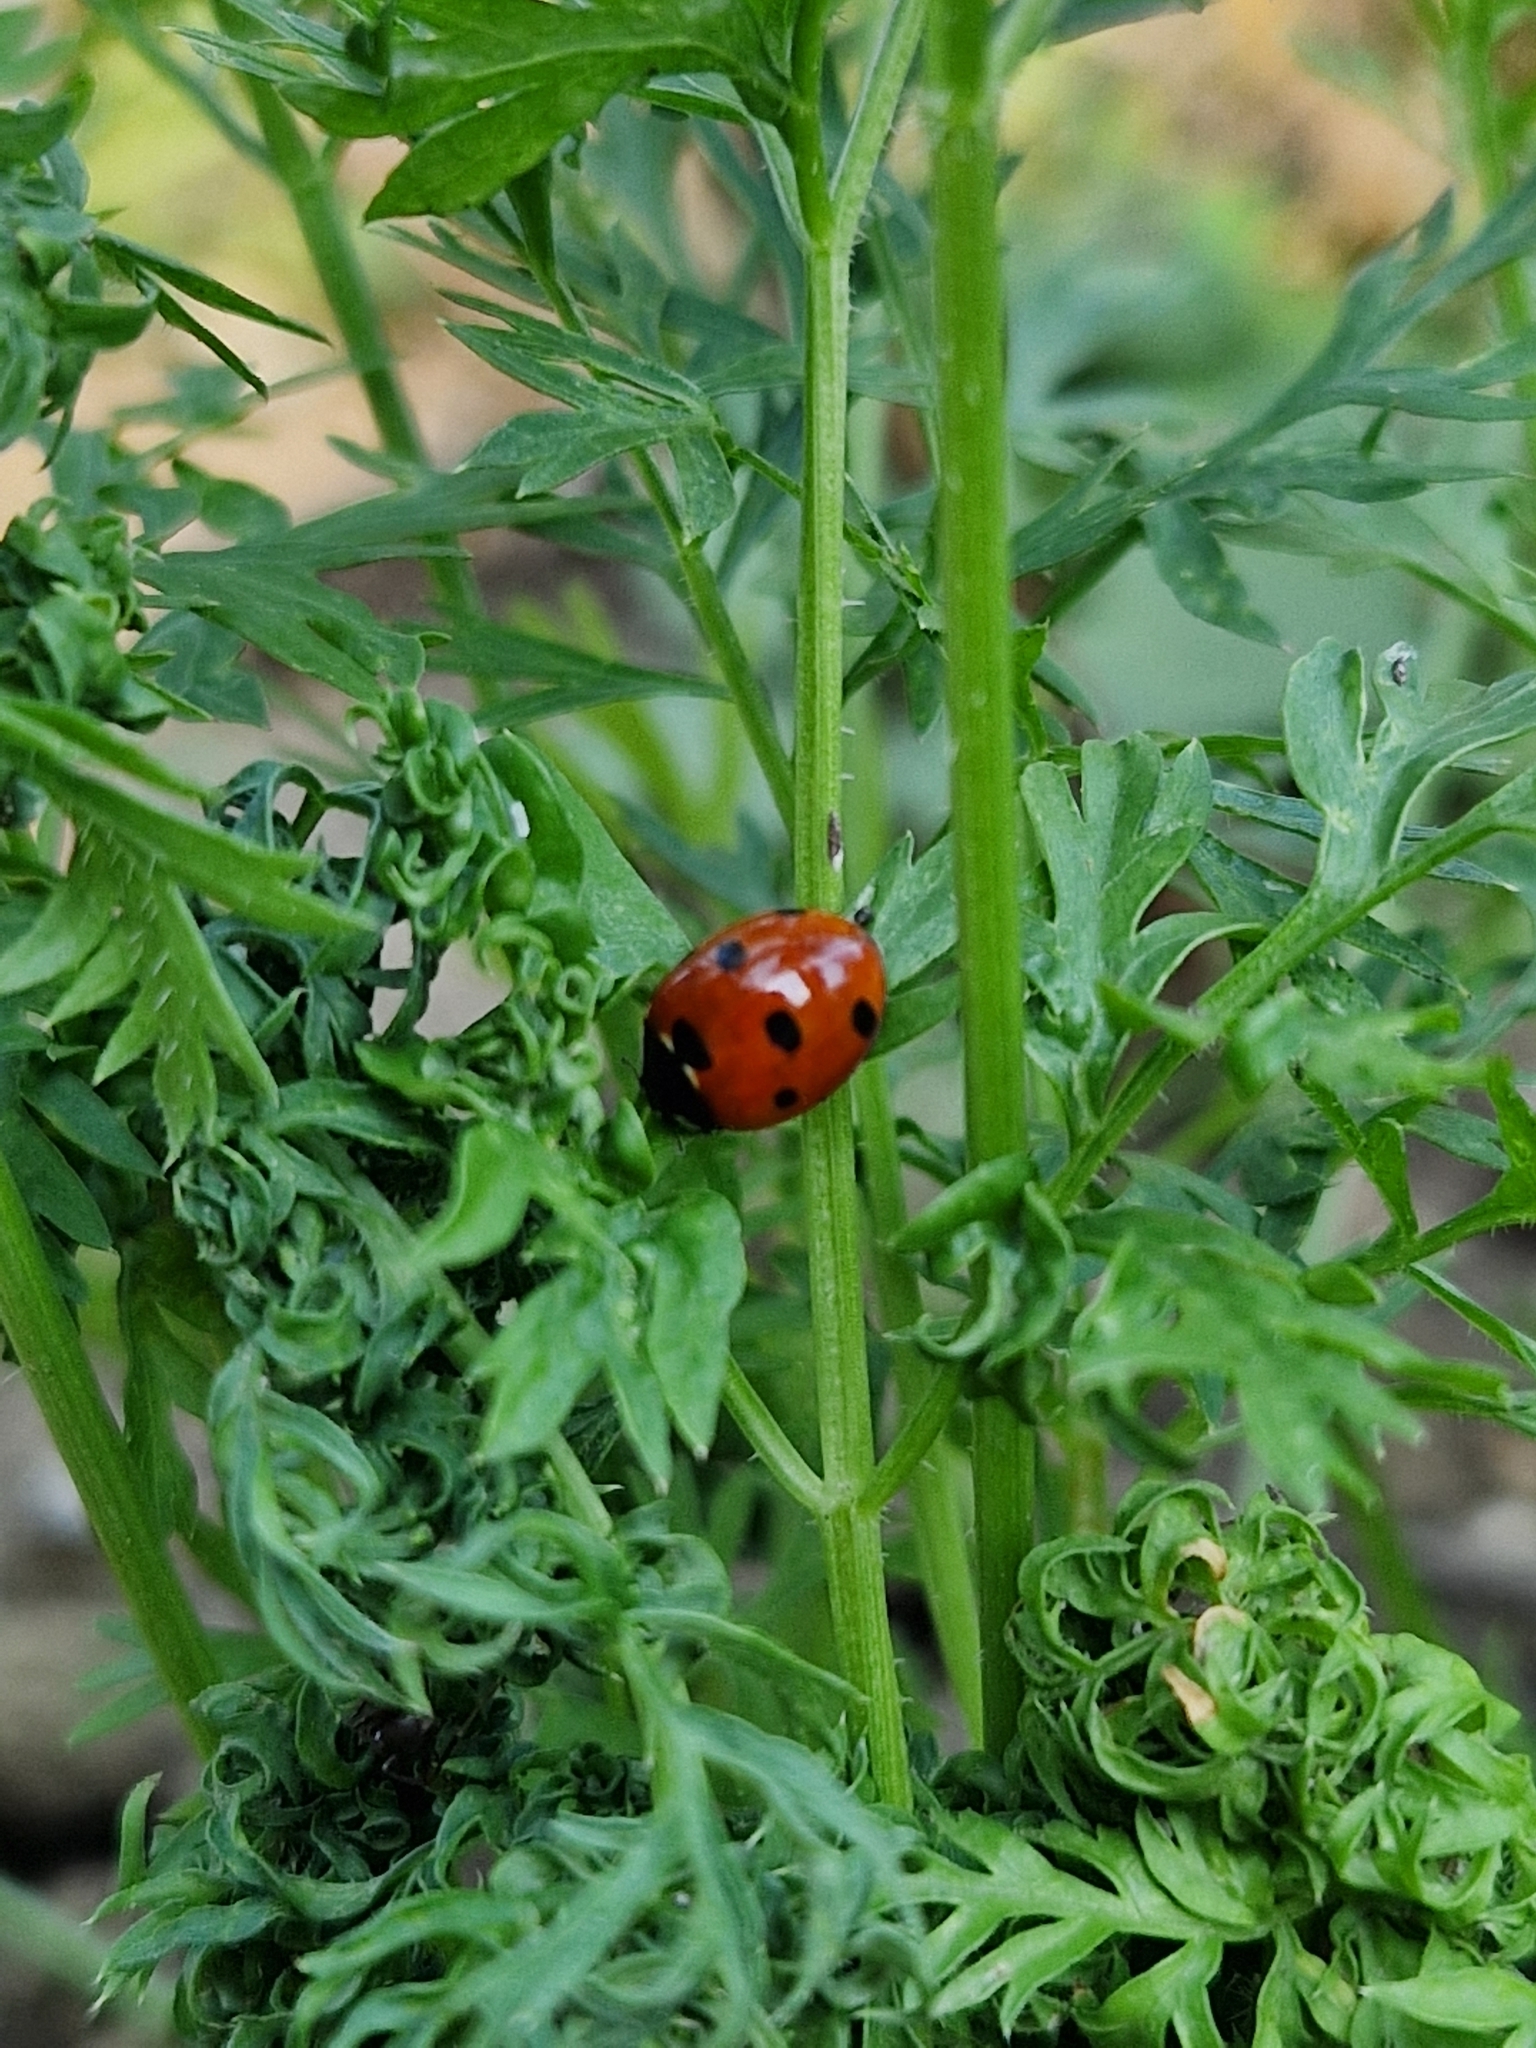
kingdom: Animalia
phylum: Arthropoda
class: Insecta
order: Coleoptera
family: Coccinellidae
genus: Coccinella
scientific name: Coccinella septempunctata
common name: Sevenspotted lady beetle
